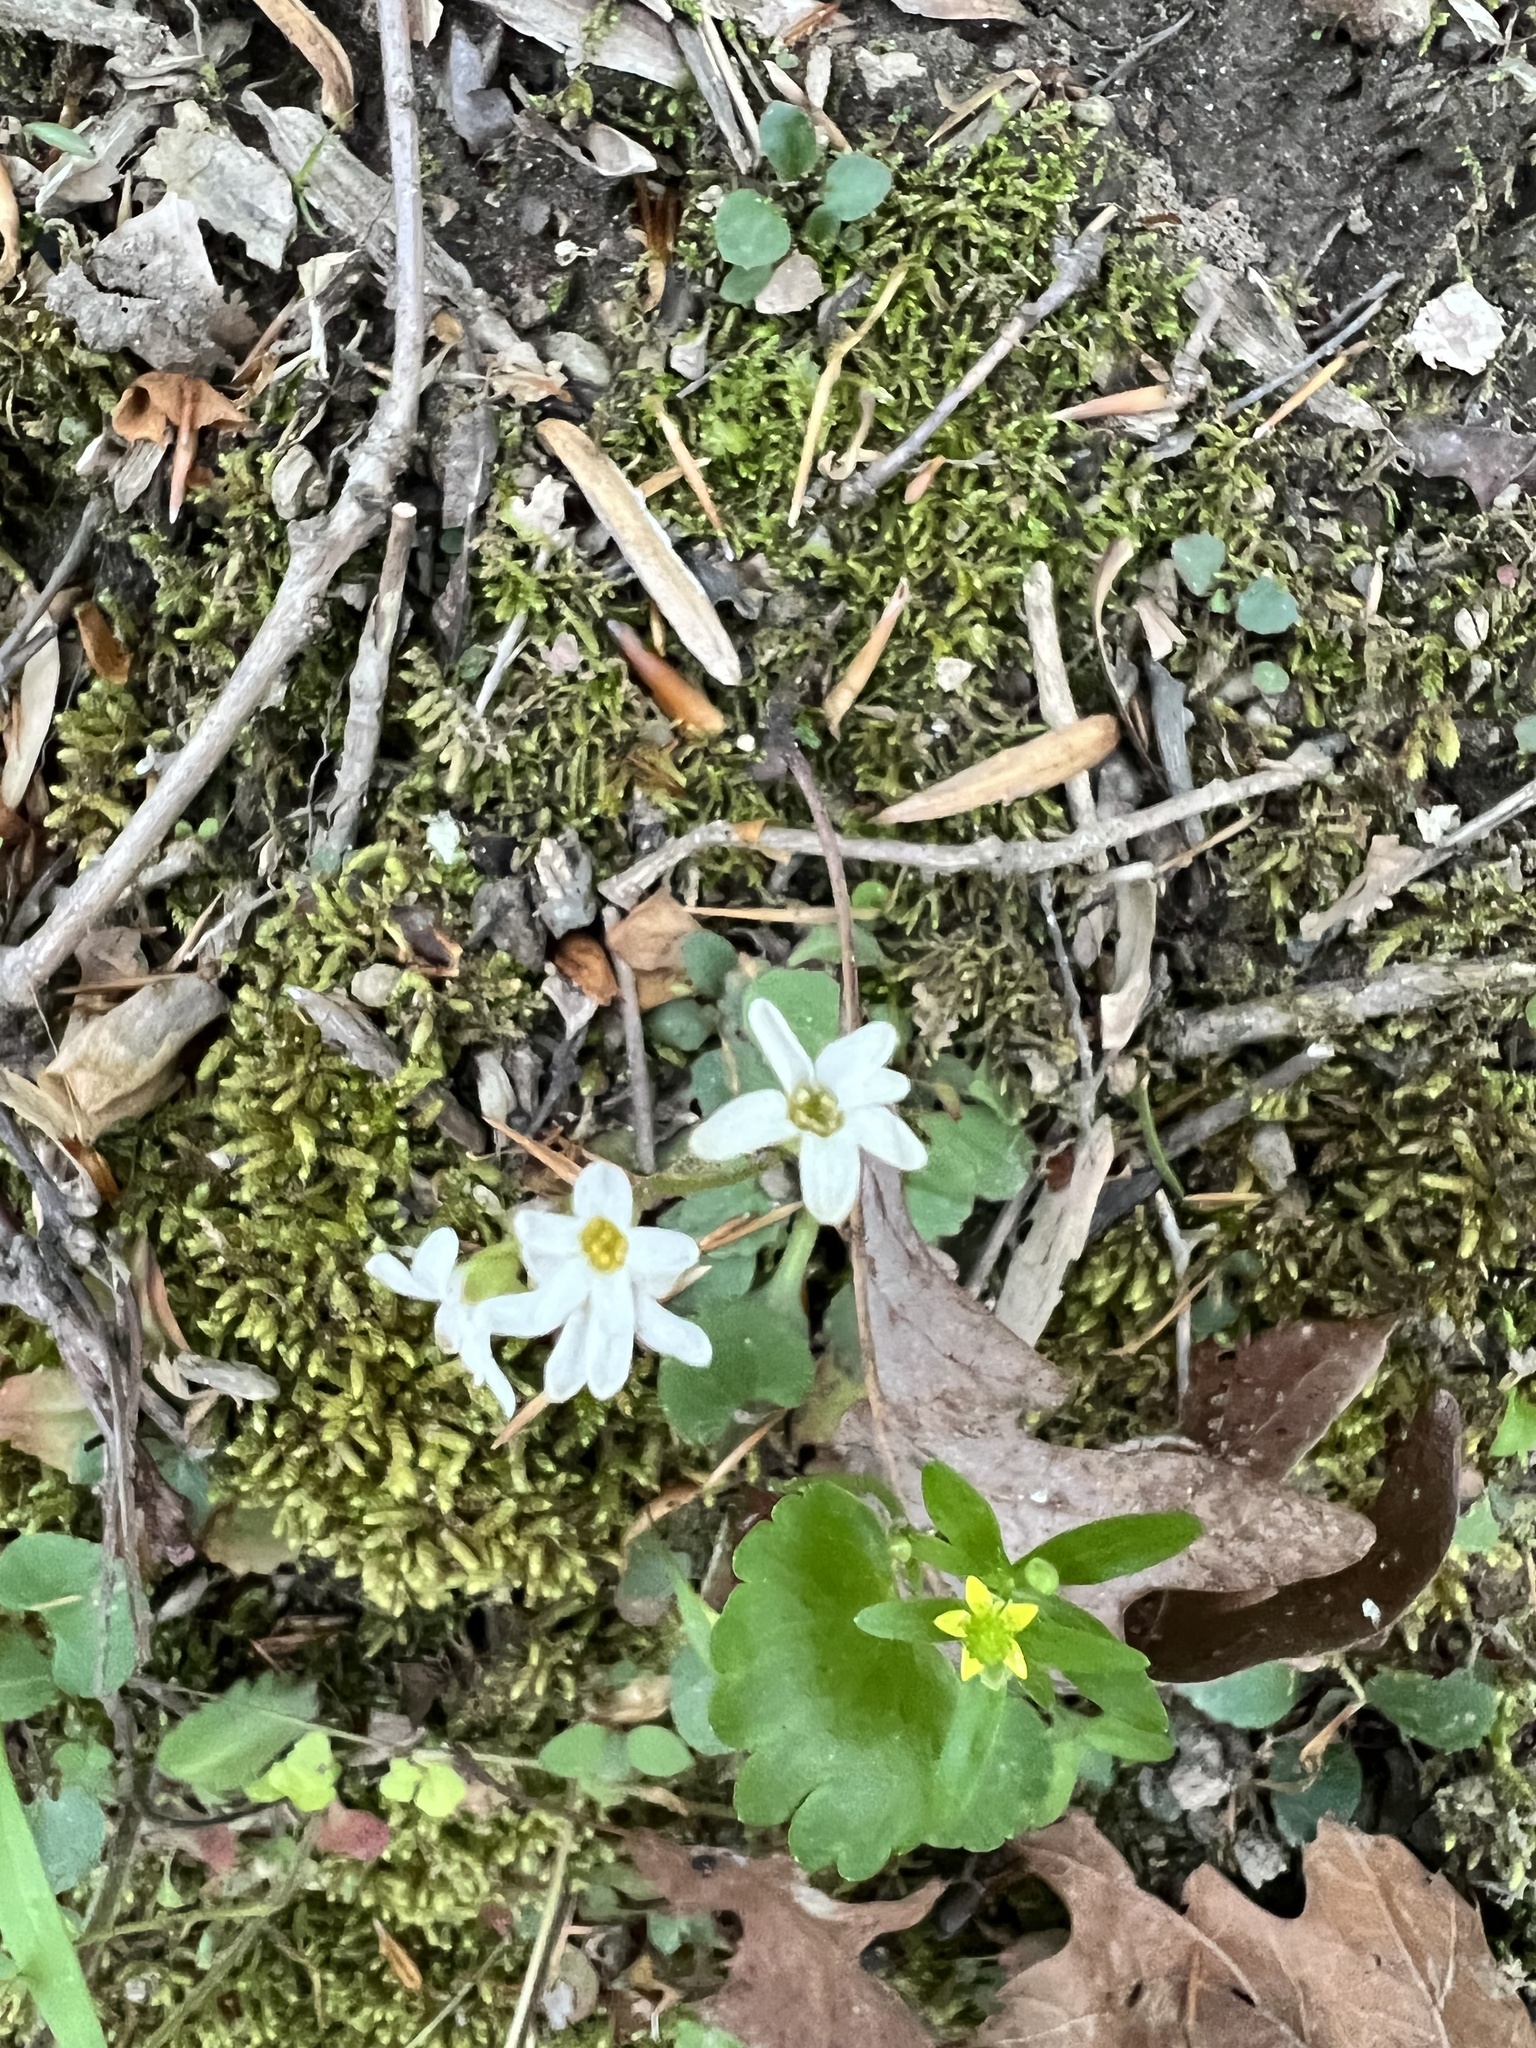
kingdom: Plantae
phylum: Tracheophyta
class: Magnoliopsida
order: Saxifragales
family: Saxifragaceae
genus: Micranthes
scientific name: Micranthes virginiensis
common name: Early saxifrage
